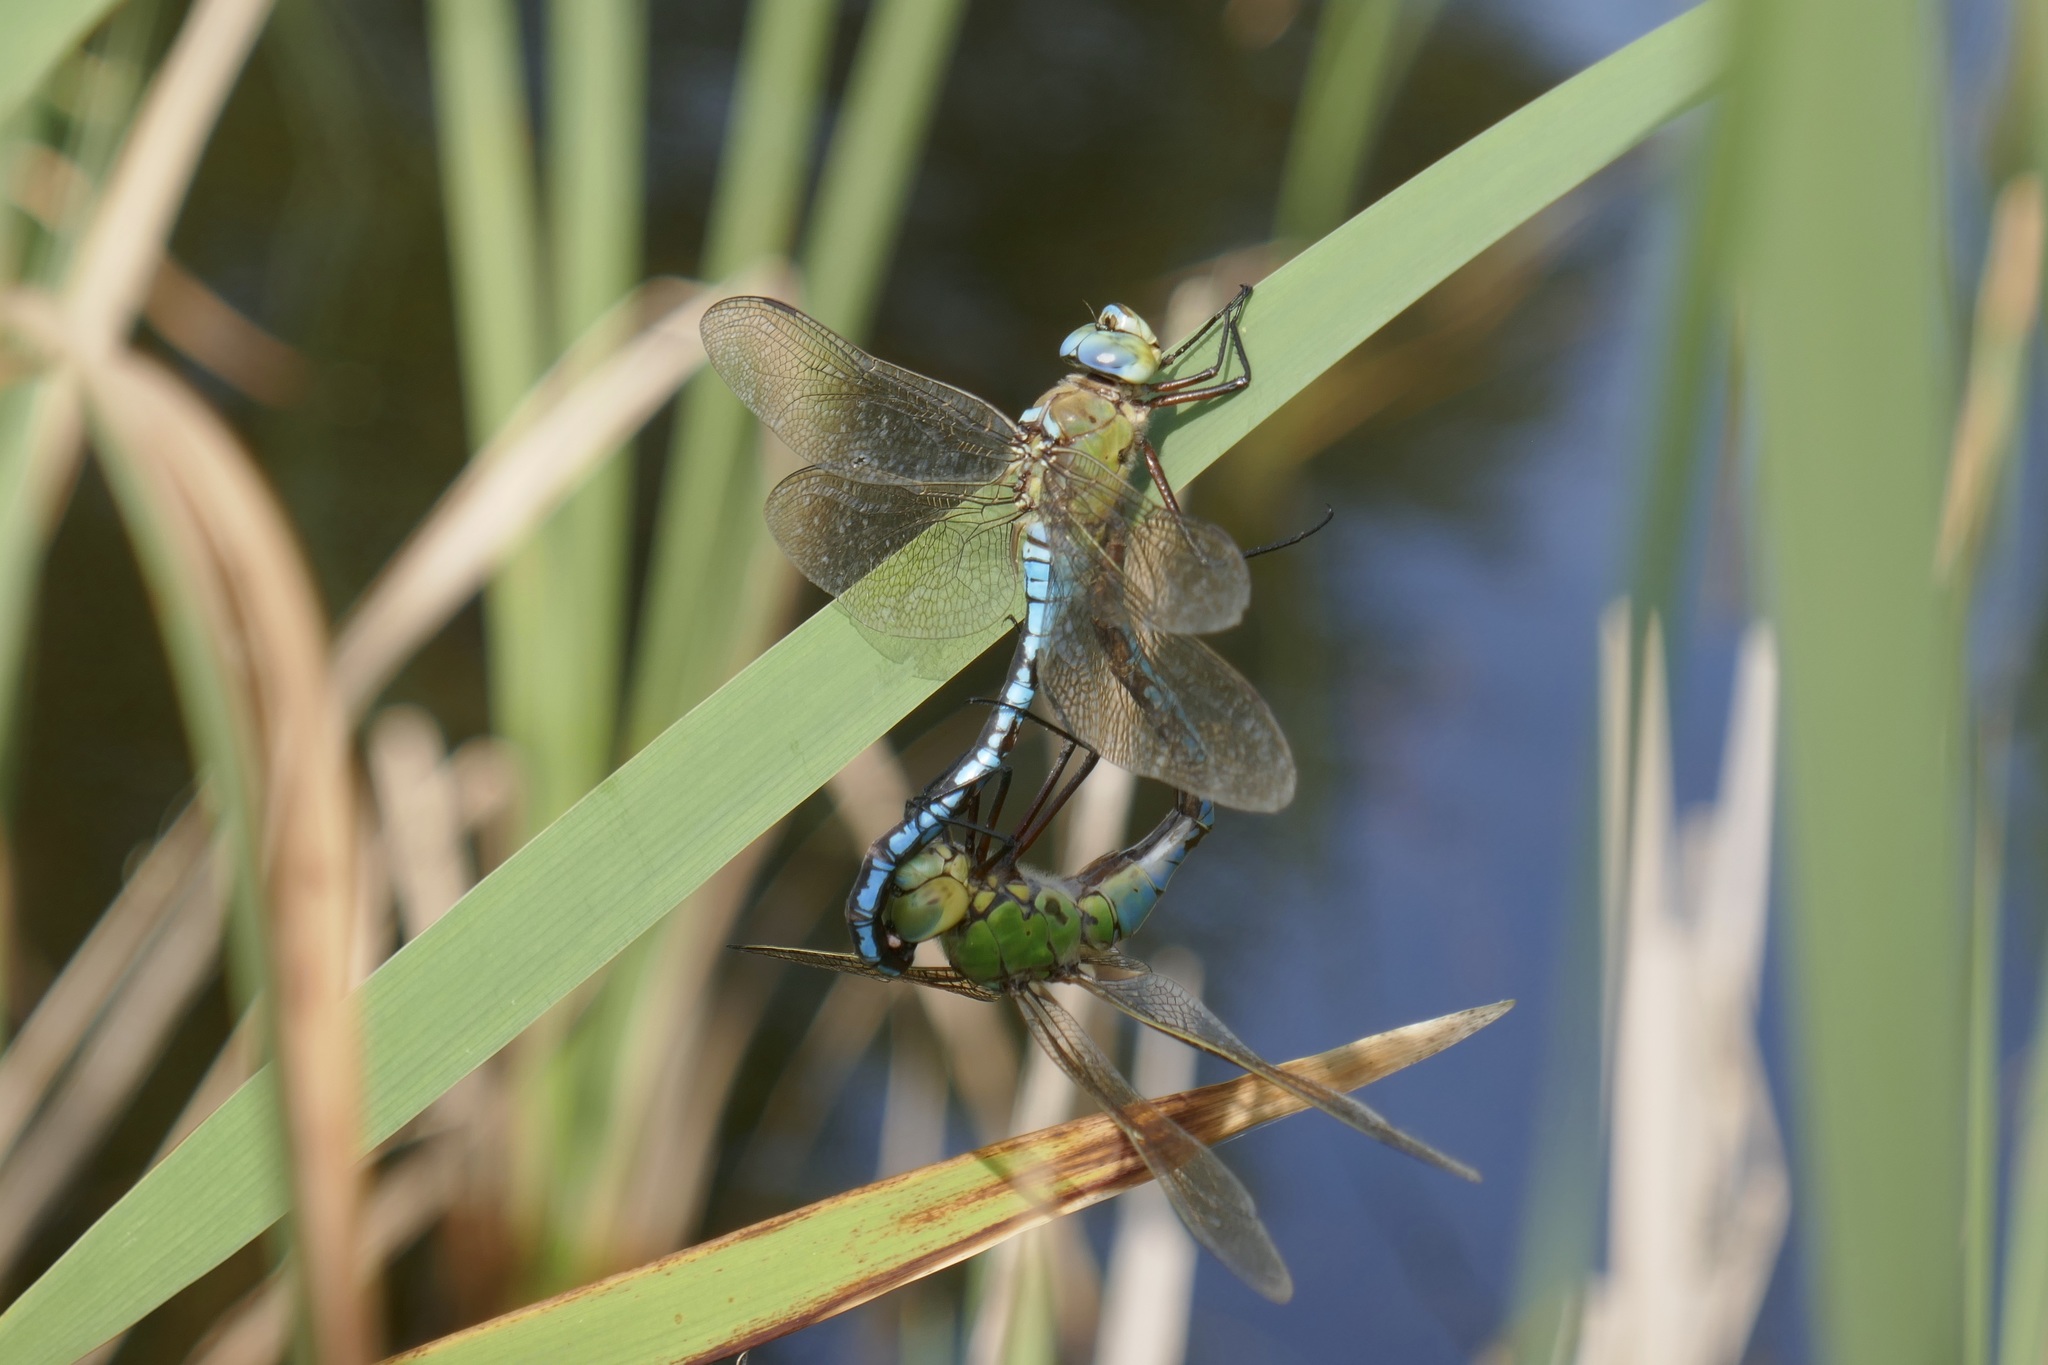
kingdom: Animalia
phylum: Arthropoda
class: Insecta
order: Odonata
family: Aeshnidae
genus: Anax
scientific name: Anax imperator
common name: Emperor dragonfly
